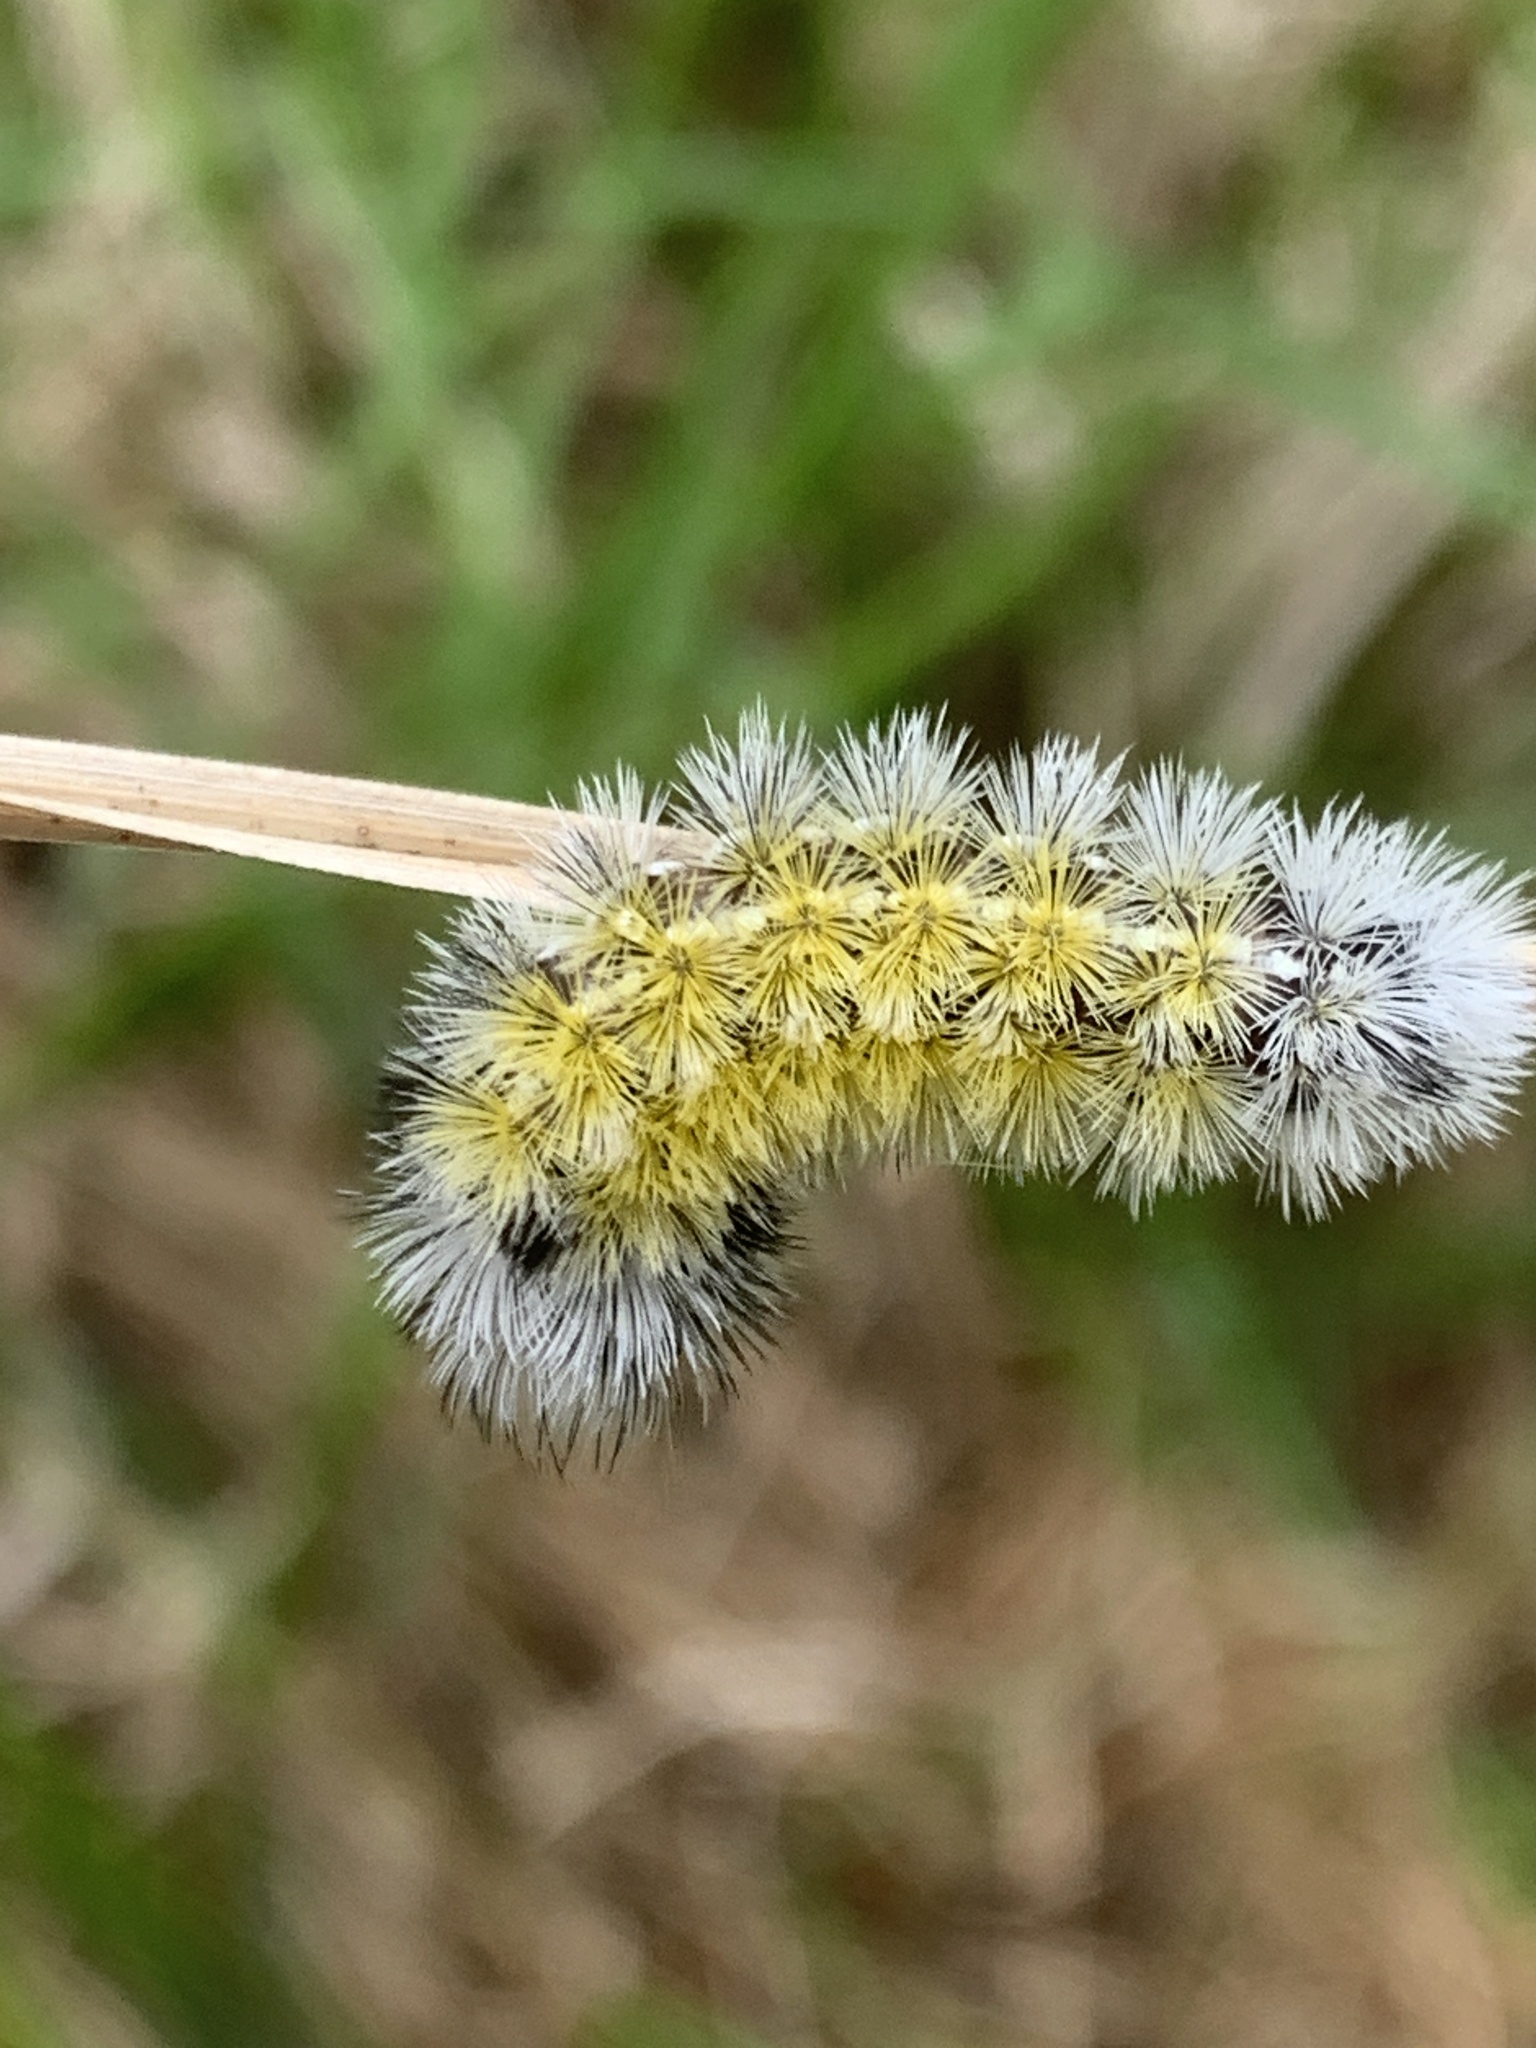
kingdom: Animalia
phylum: Arthropoda
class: Insecta
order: Lepidoptera
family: Erebidae
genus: Ctenucha
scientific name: Ctenucha virginica
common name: Virginia ctenucha moth
